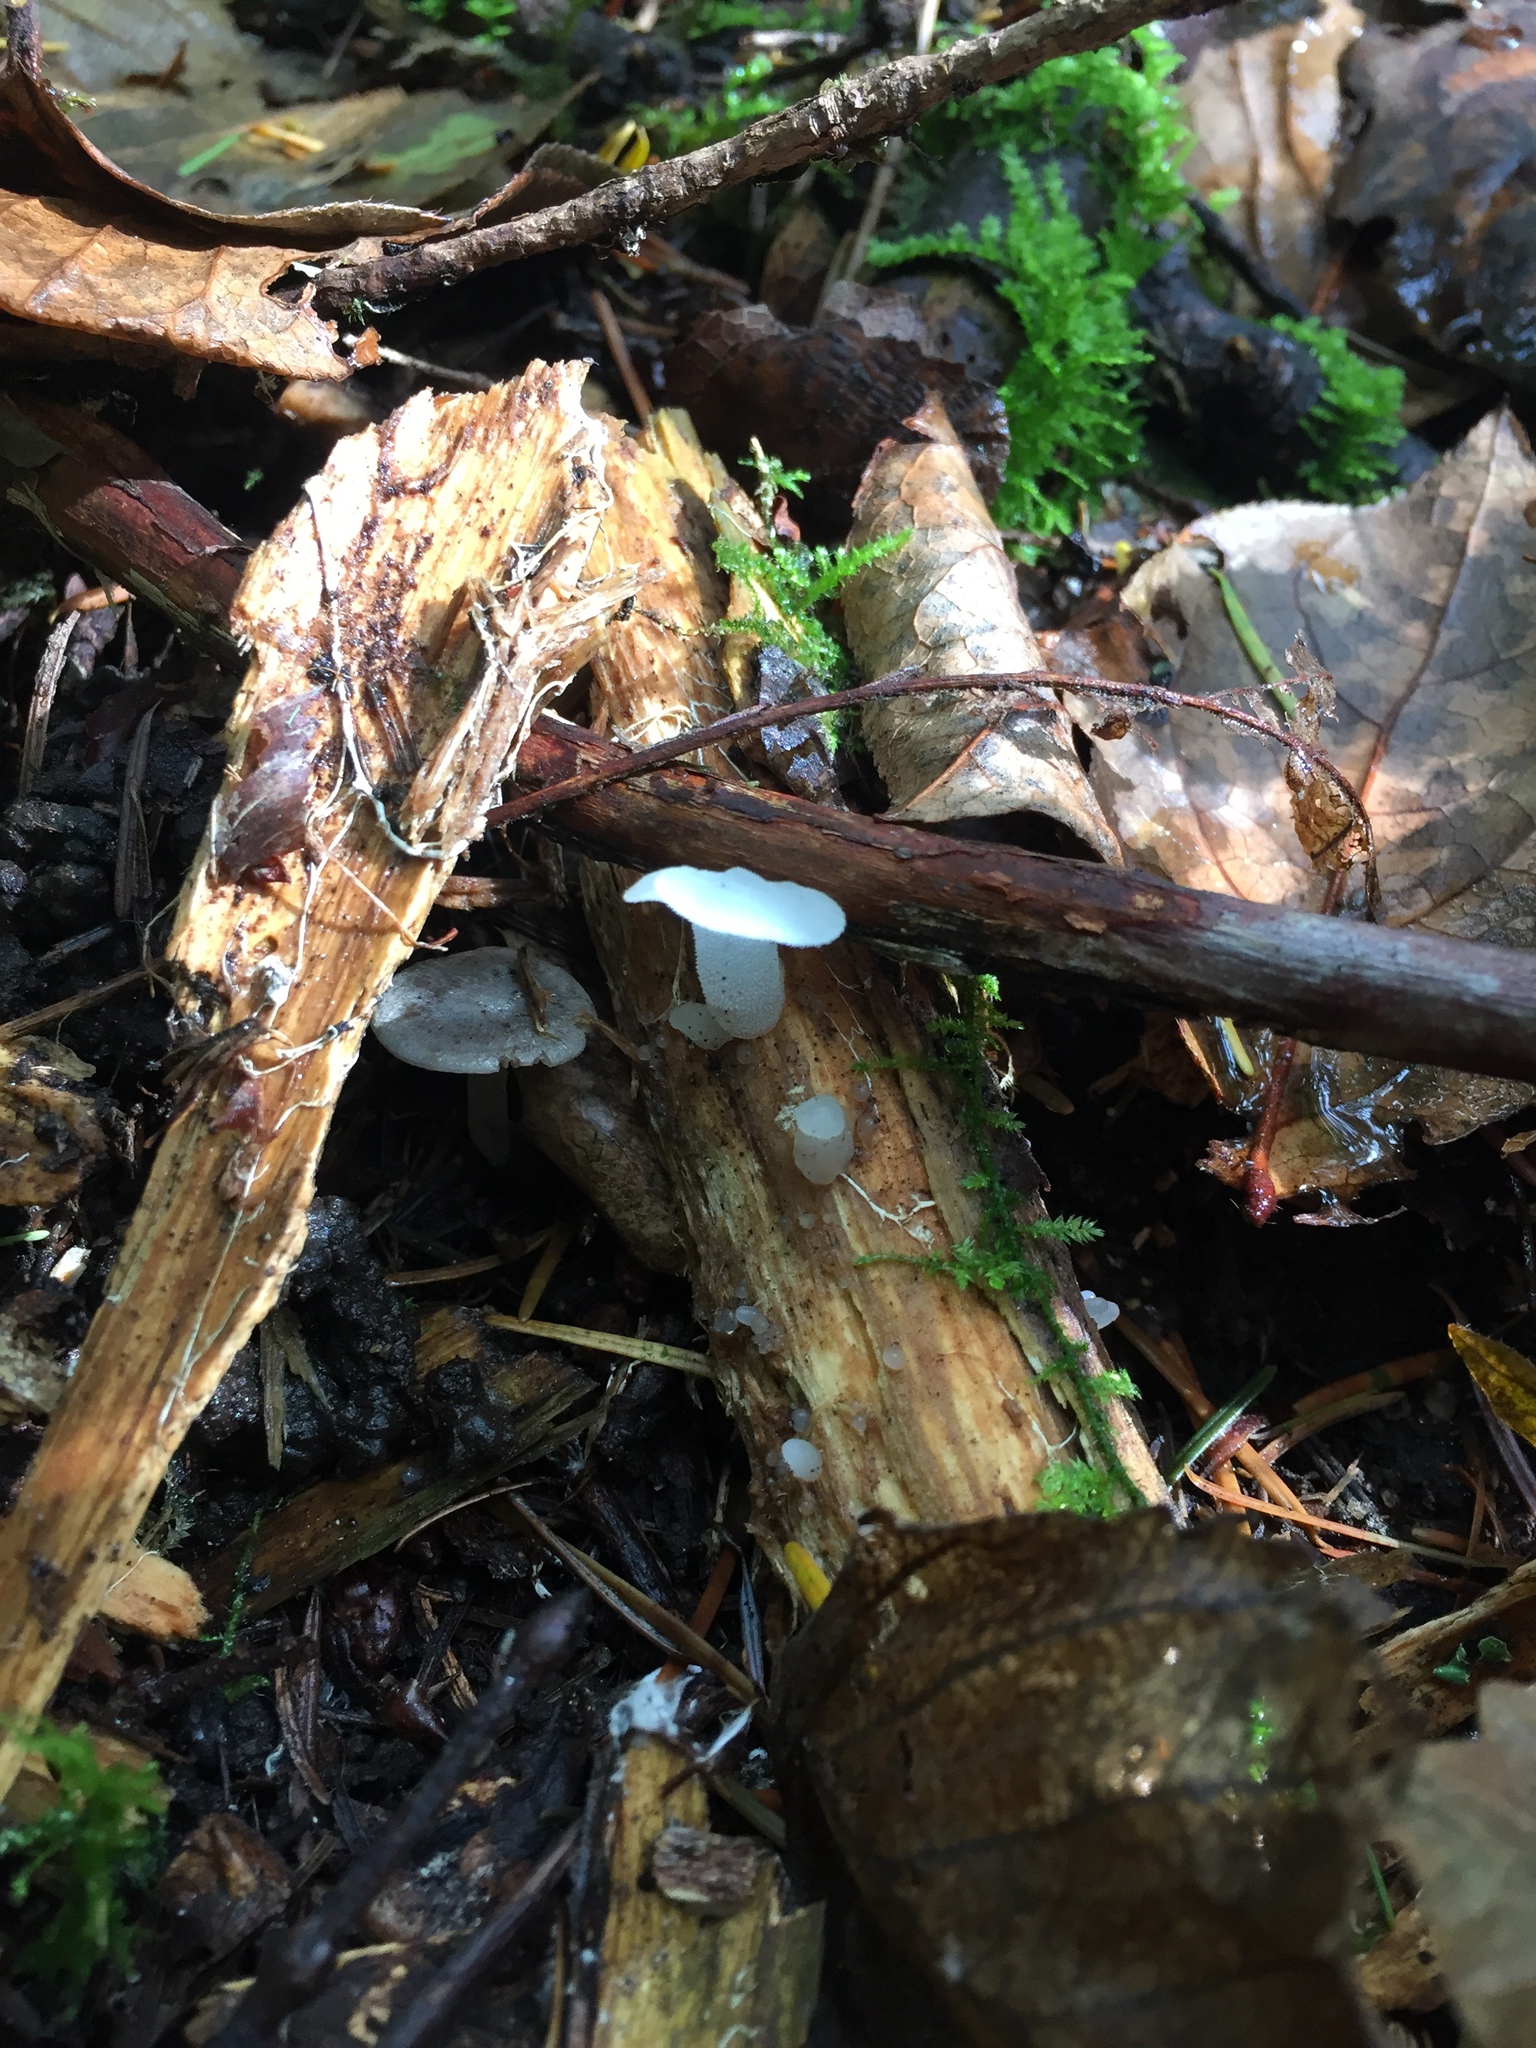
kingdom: Fungi
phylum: Basidiomycota
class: Agaricomycetes
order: Auriculariales
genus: Pseudohydnum
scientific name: Pseudohydnum gelatinosum
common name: Jelly tongue
